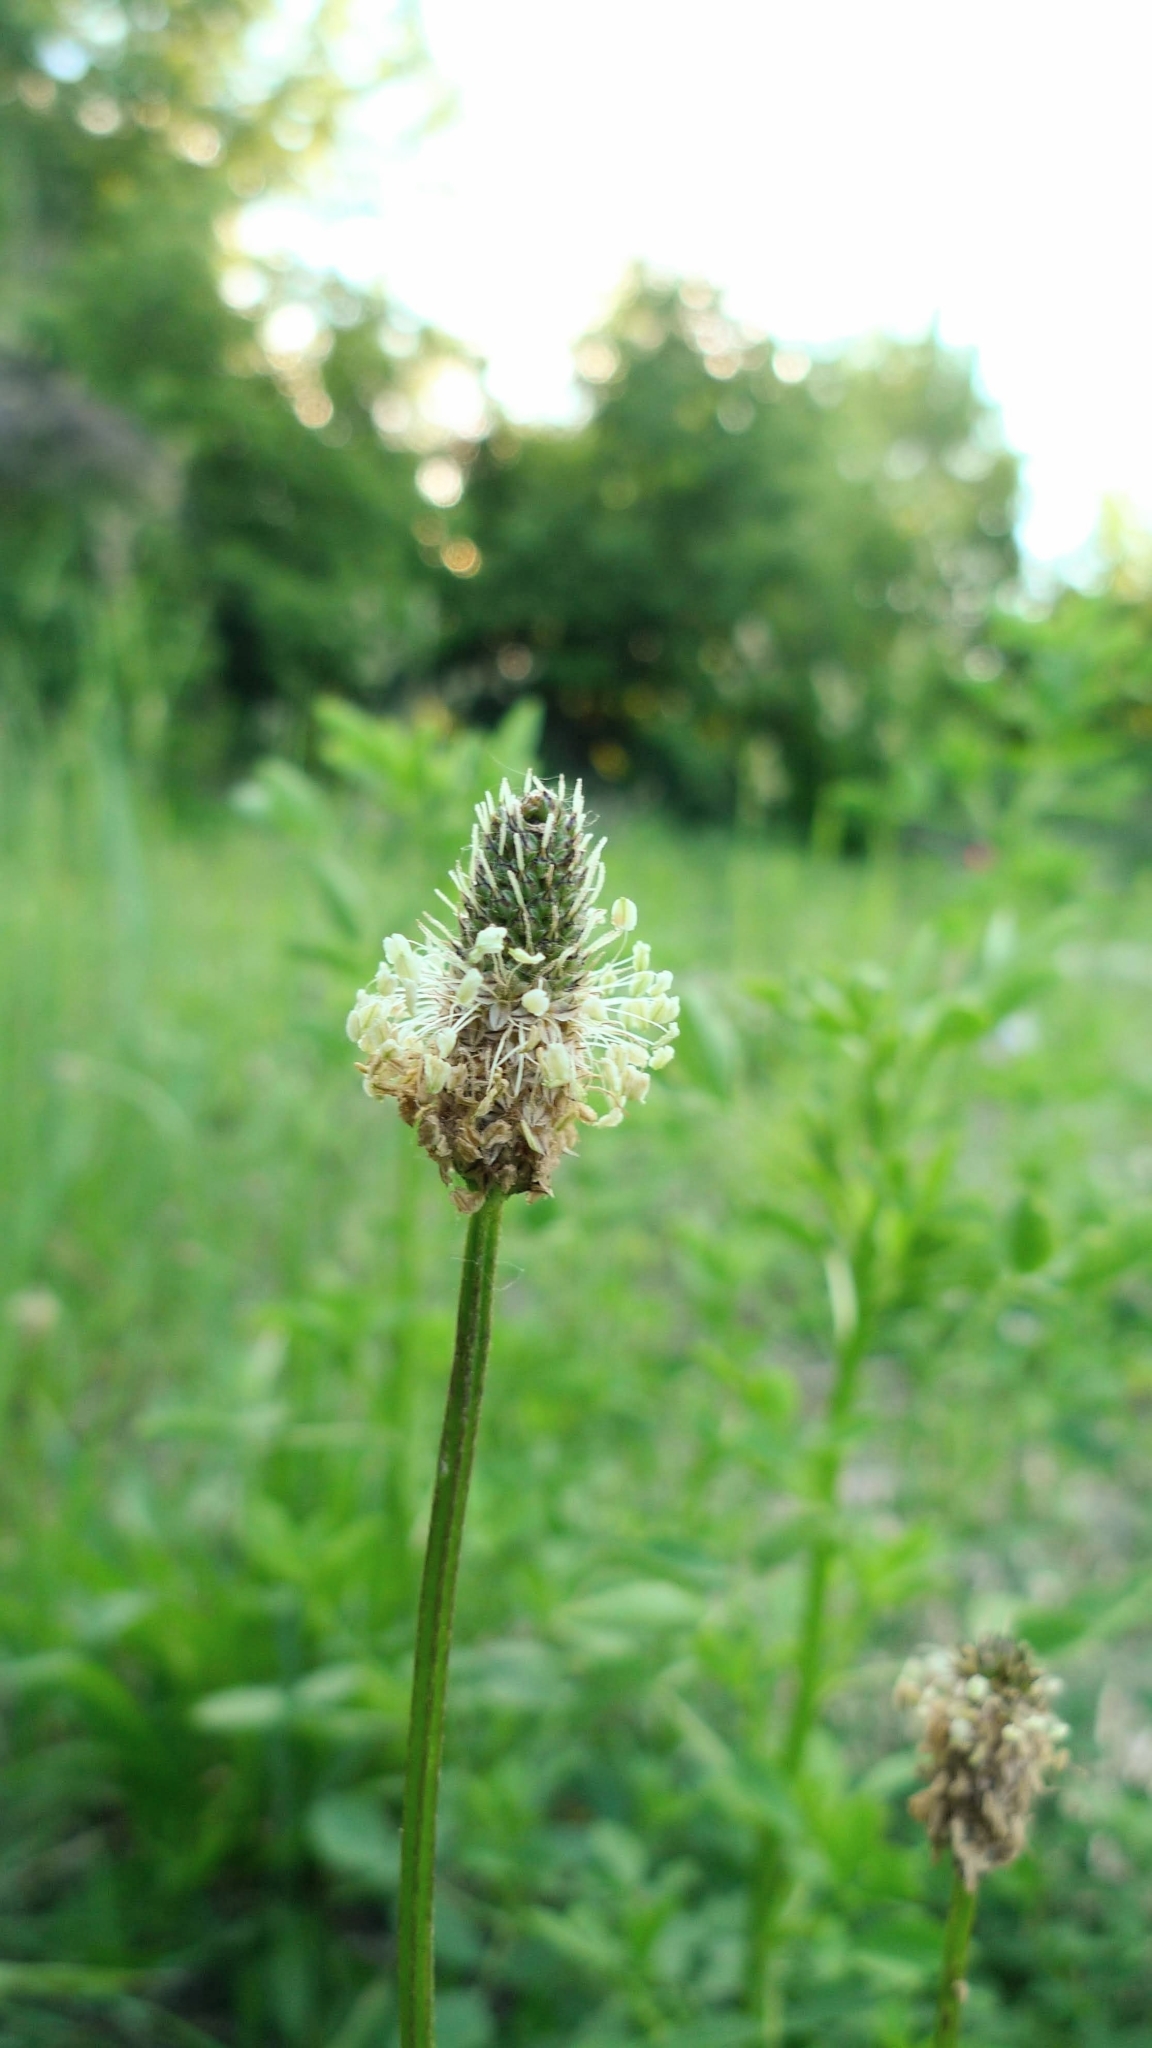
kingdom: Plantae
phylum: Tracheophyta
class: Magnoliopsida
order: Lamiales
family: Plantaginaceae
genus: Plantago
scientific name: Plantago lanceolata
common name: Ribwort plantain
